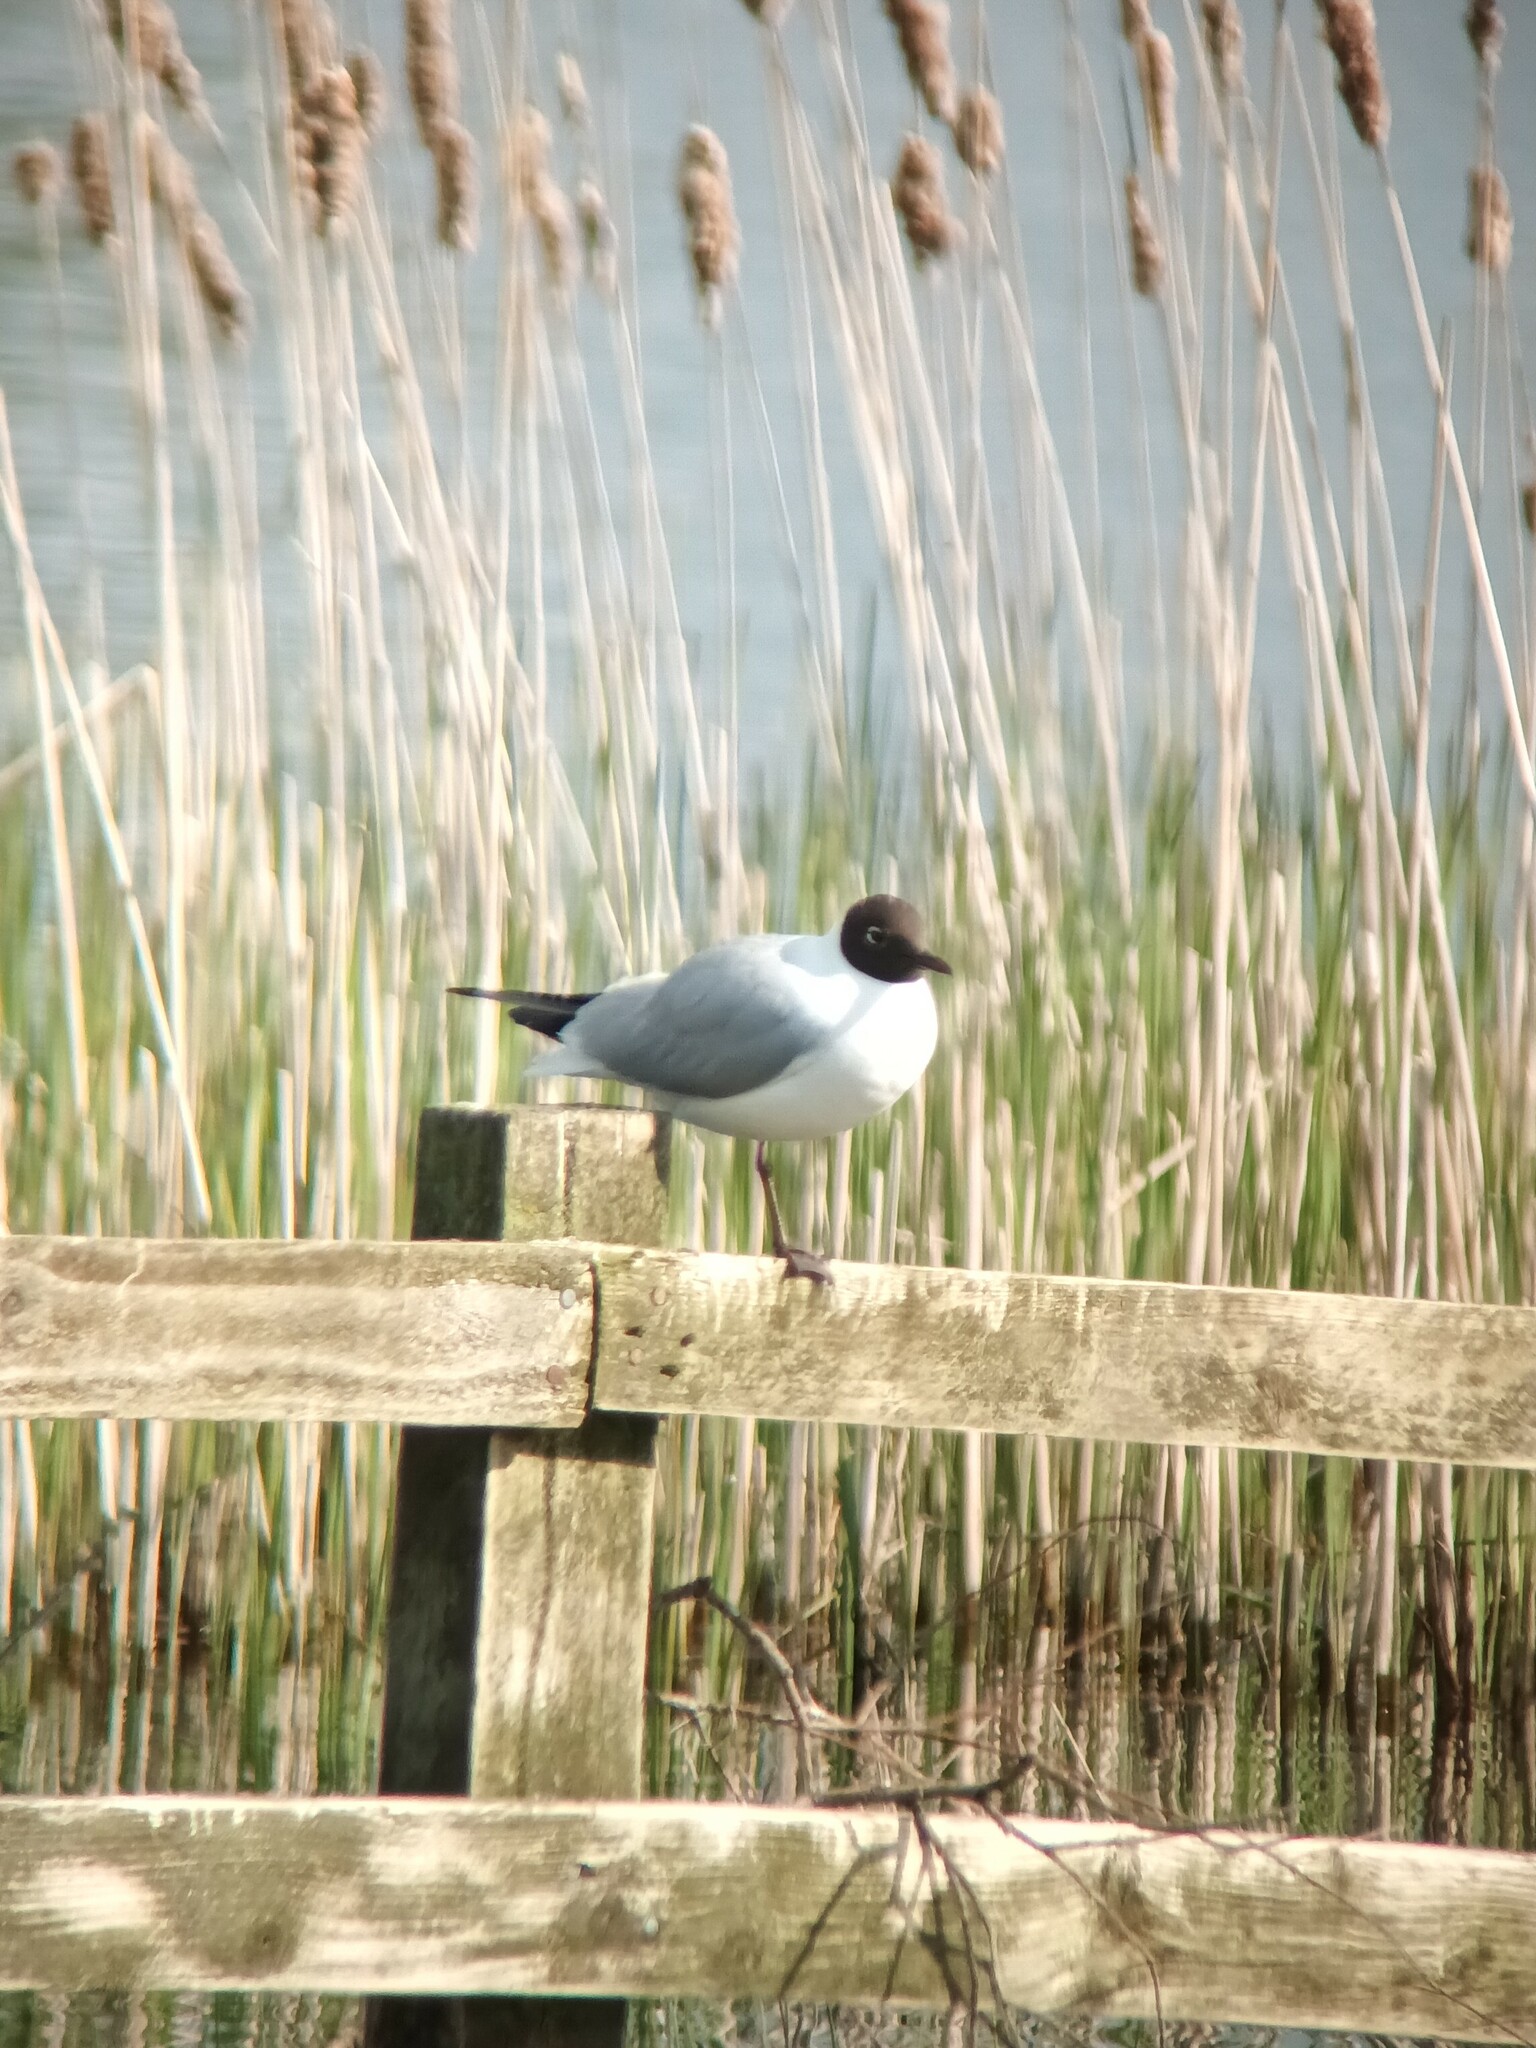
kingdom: Animalia
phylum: Chordata
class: Aves
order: Charadriiformes
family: Laridae
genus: Chroicocephalus
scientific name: Chroicocephalus ridibundus
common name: Black-headed gull
